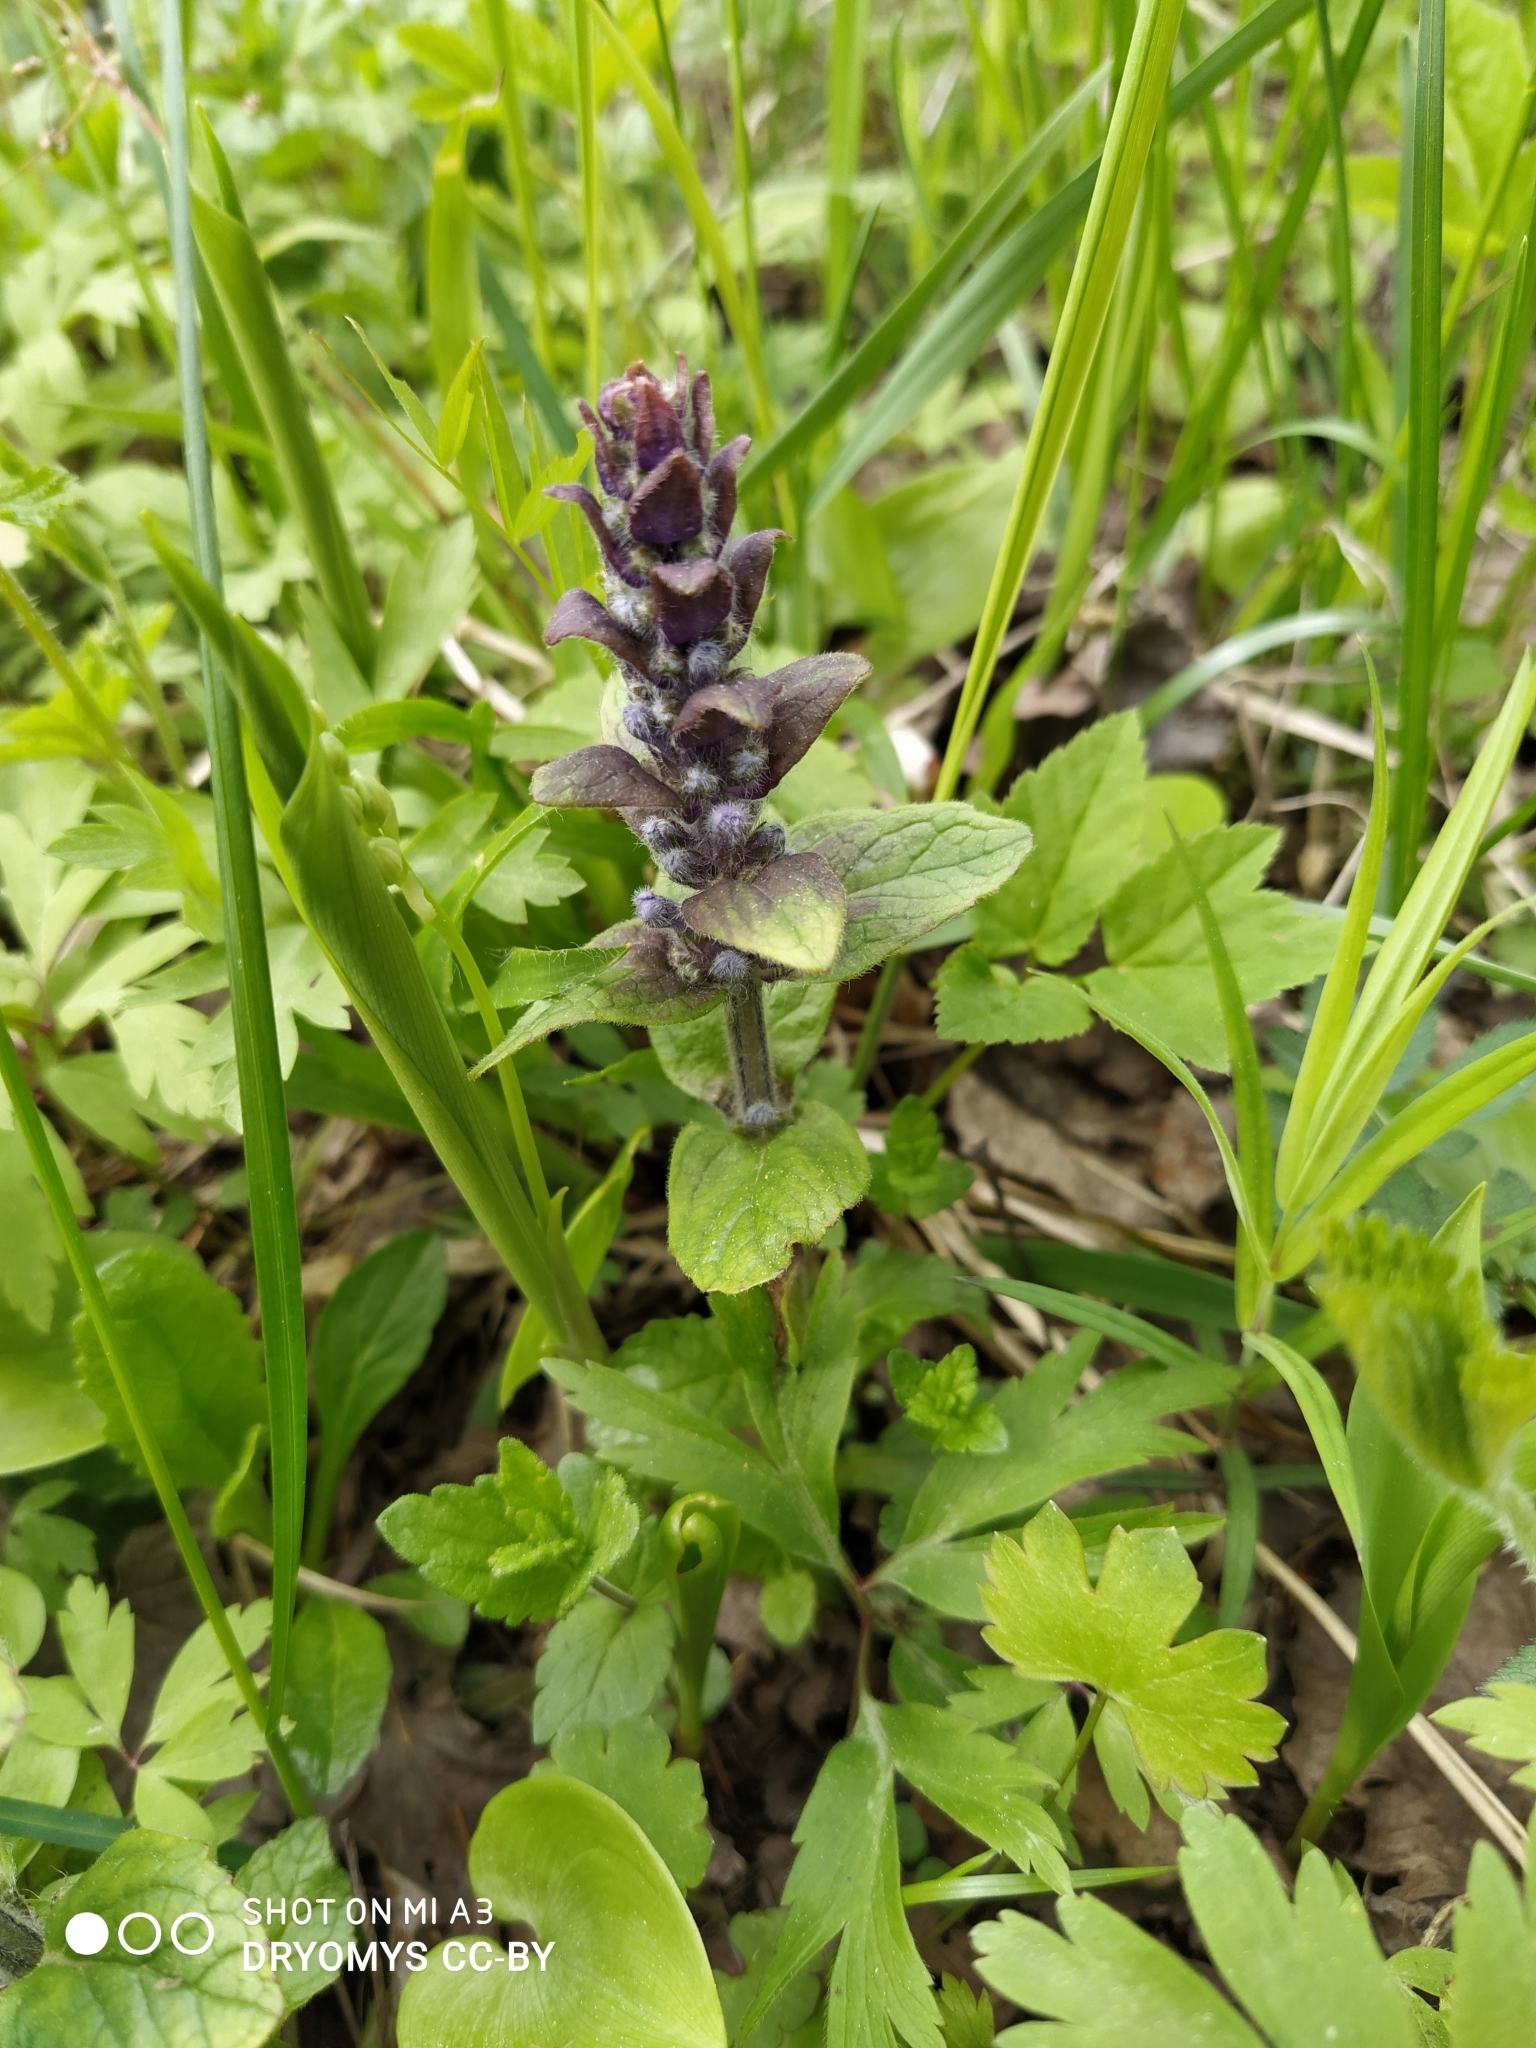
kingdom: Plantae
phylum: Tracheophyta
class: Magnoliopsida
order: Lamiales
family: Lamiaceae
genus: Ajuga
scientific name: Ajuga reptans
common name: Bugle
